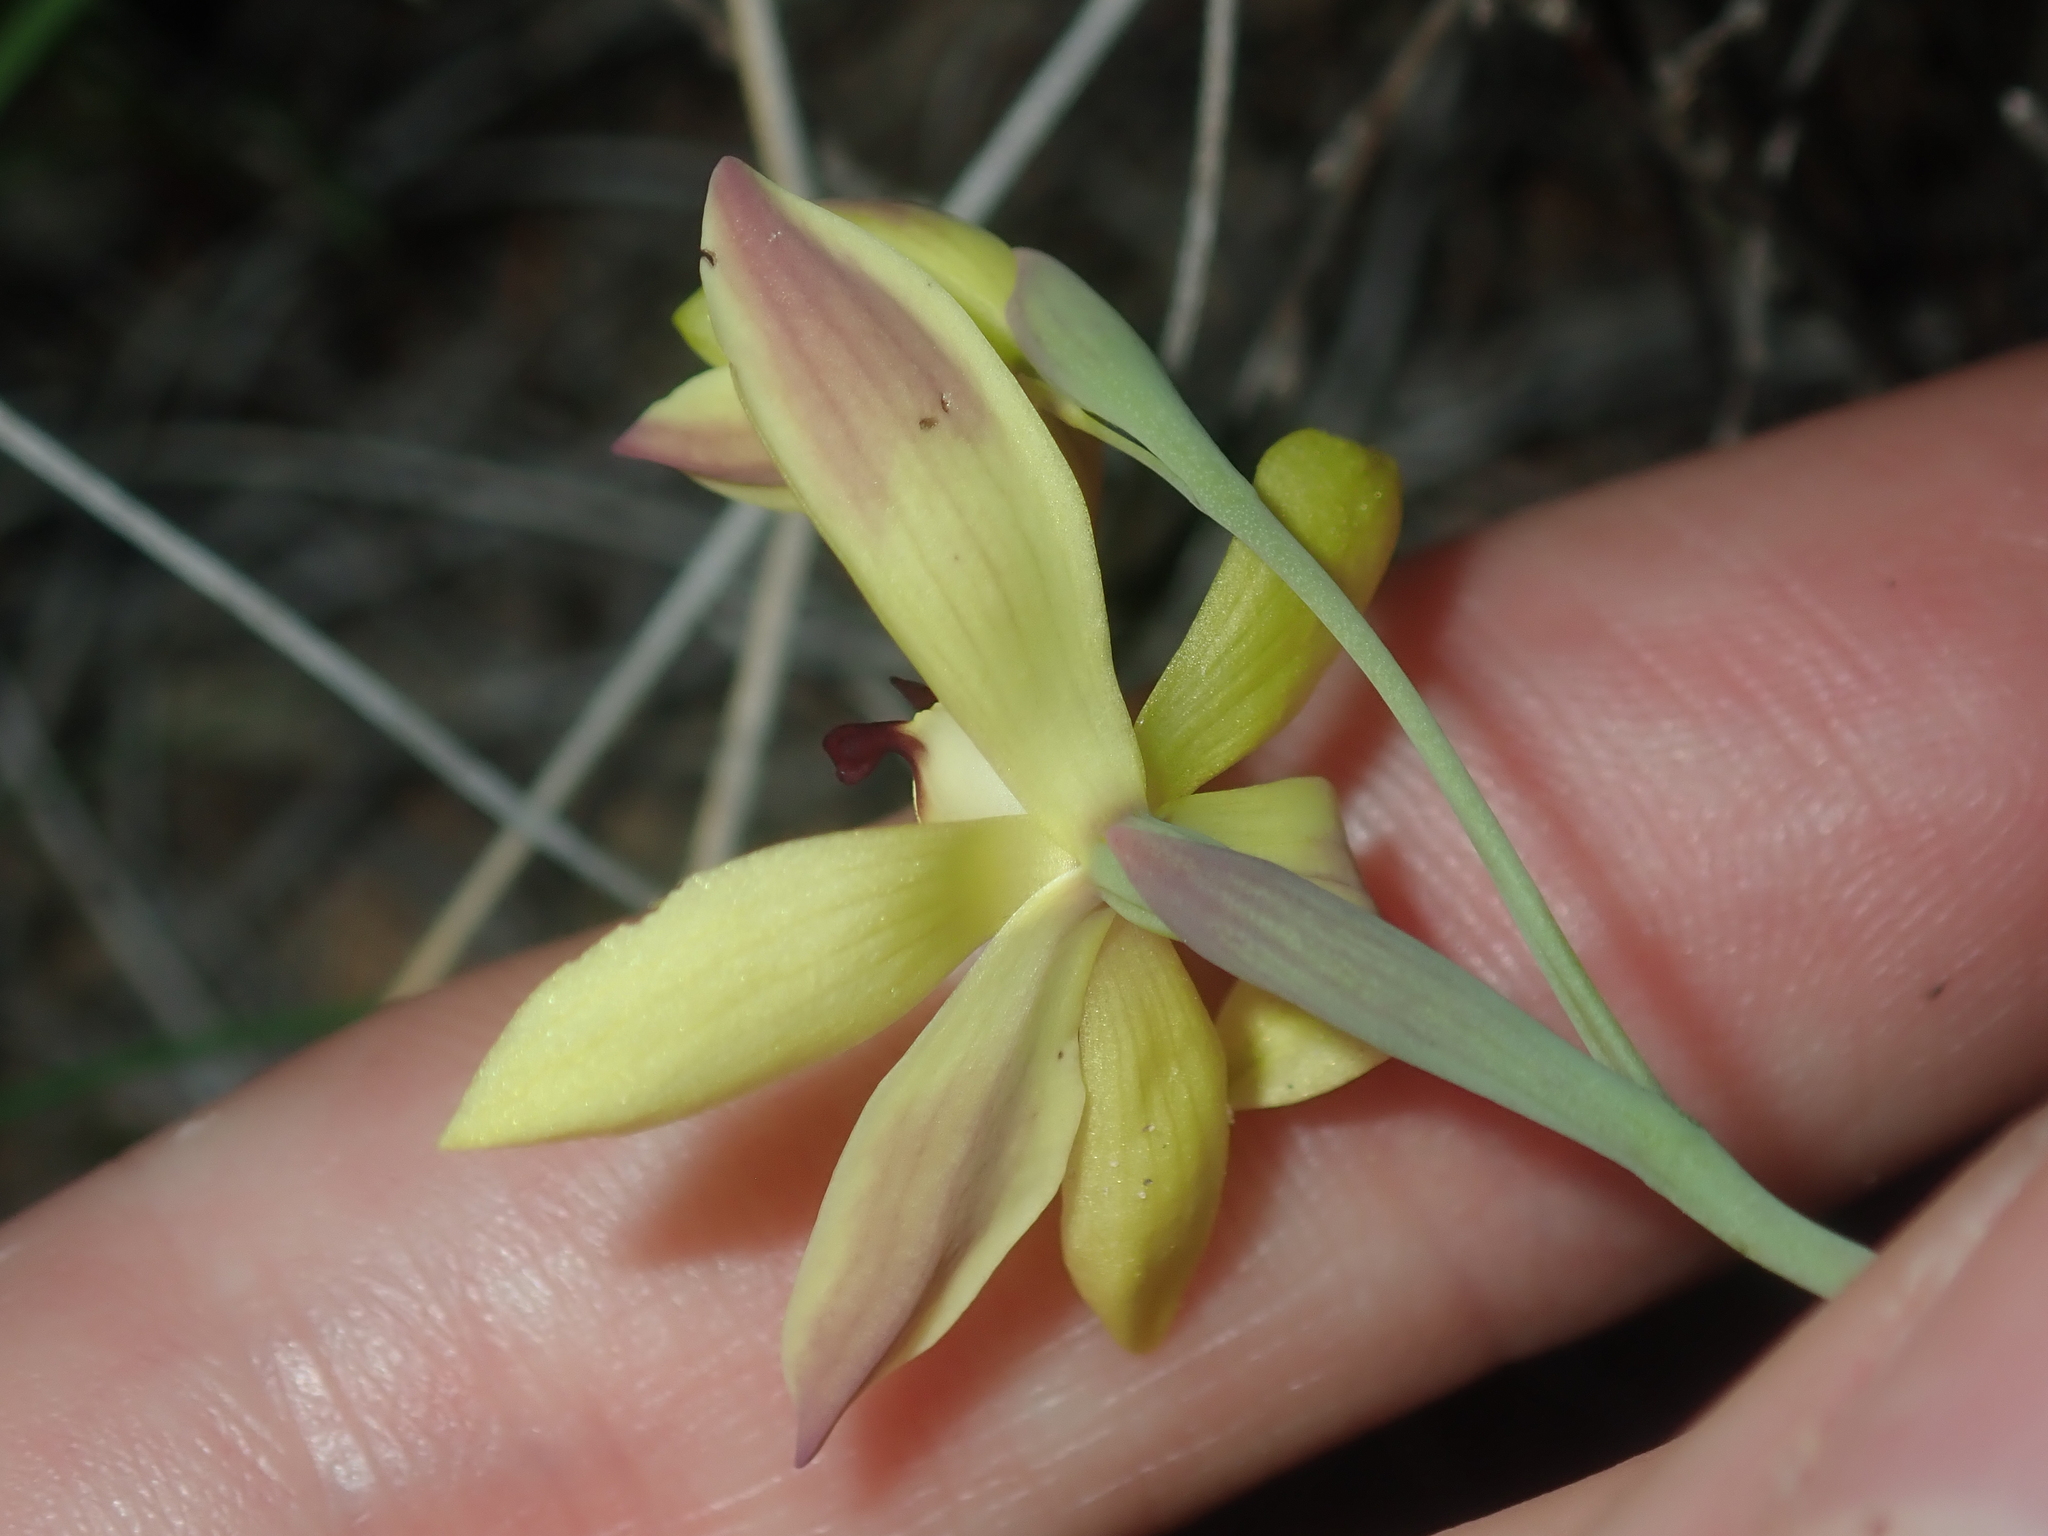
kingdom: Plantae
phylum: Tracheophyta
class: Liliopsida
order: Asparagales
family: Orchidaceae
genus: Thelymitra
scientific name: Thelymitra antennifera
